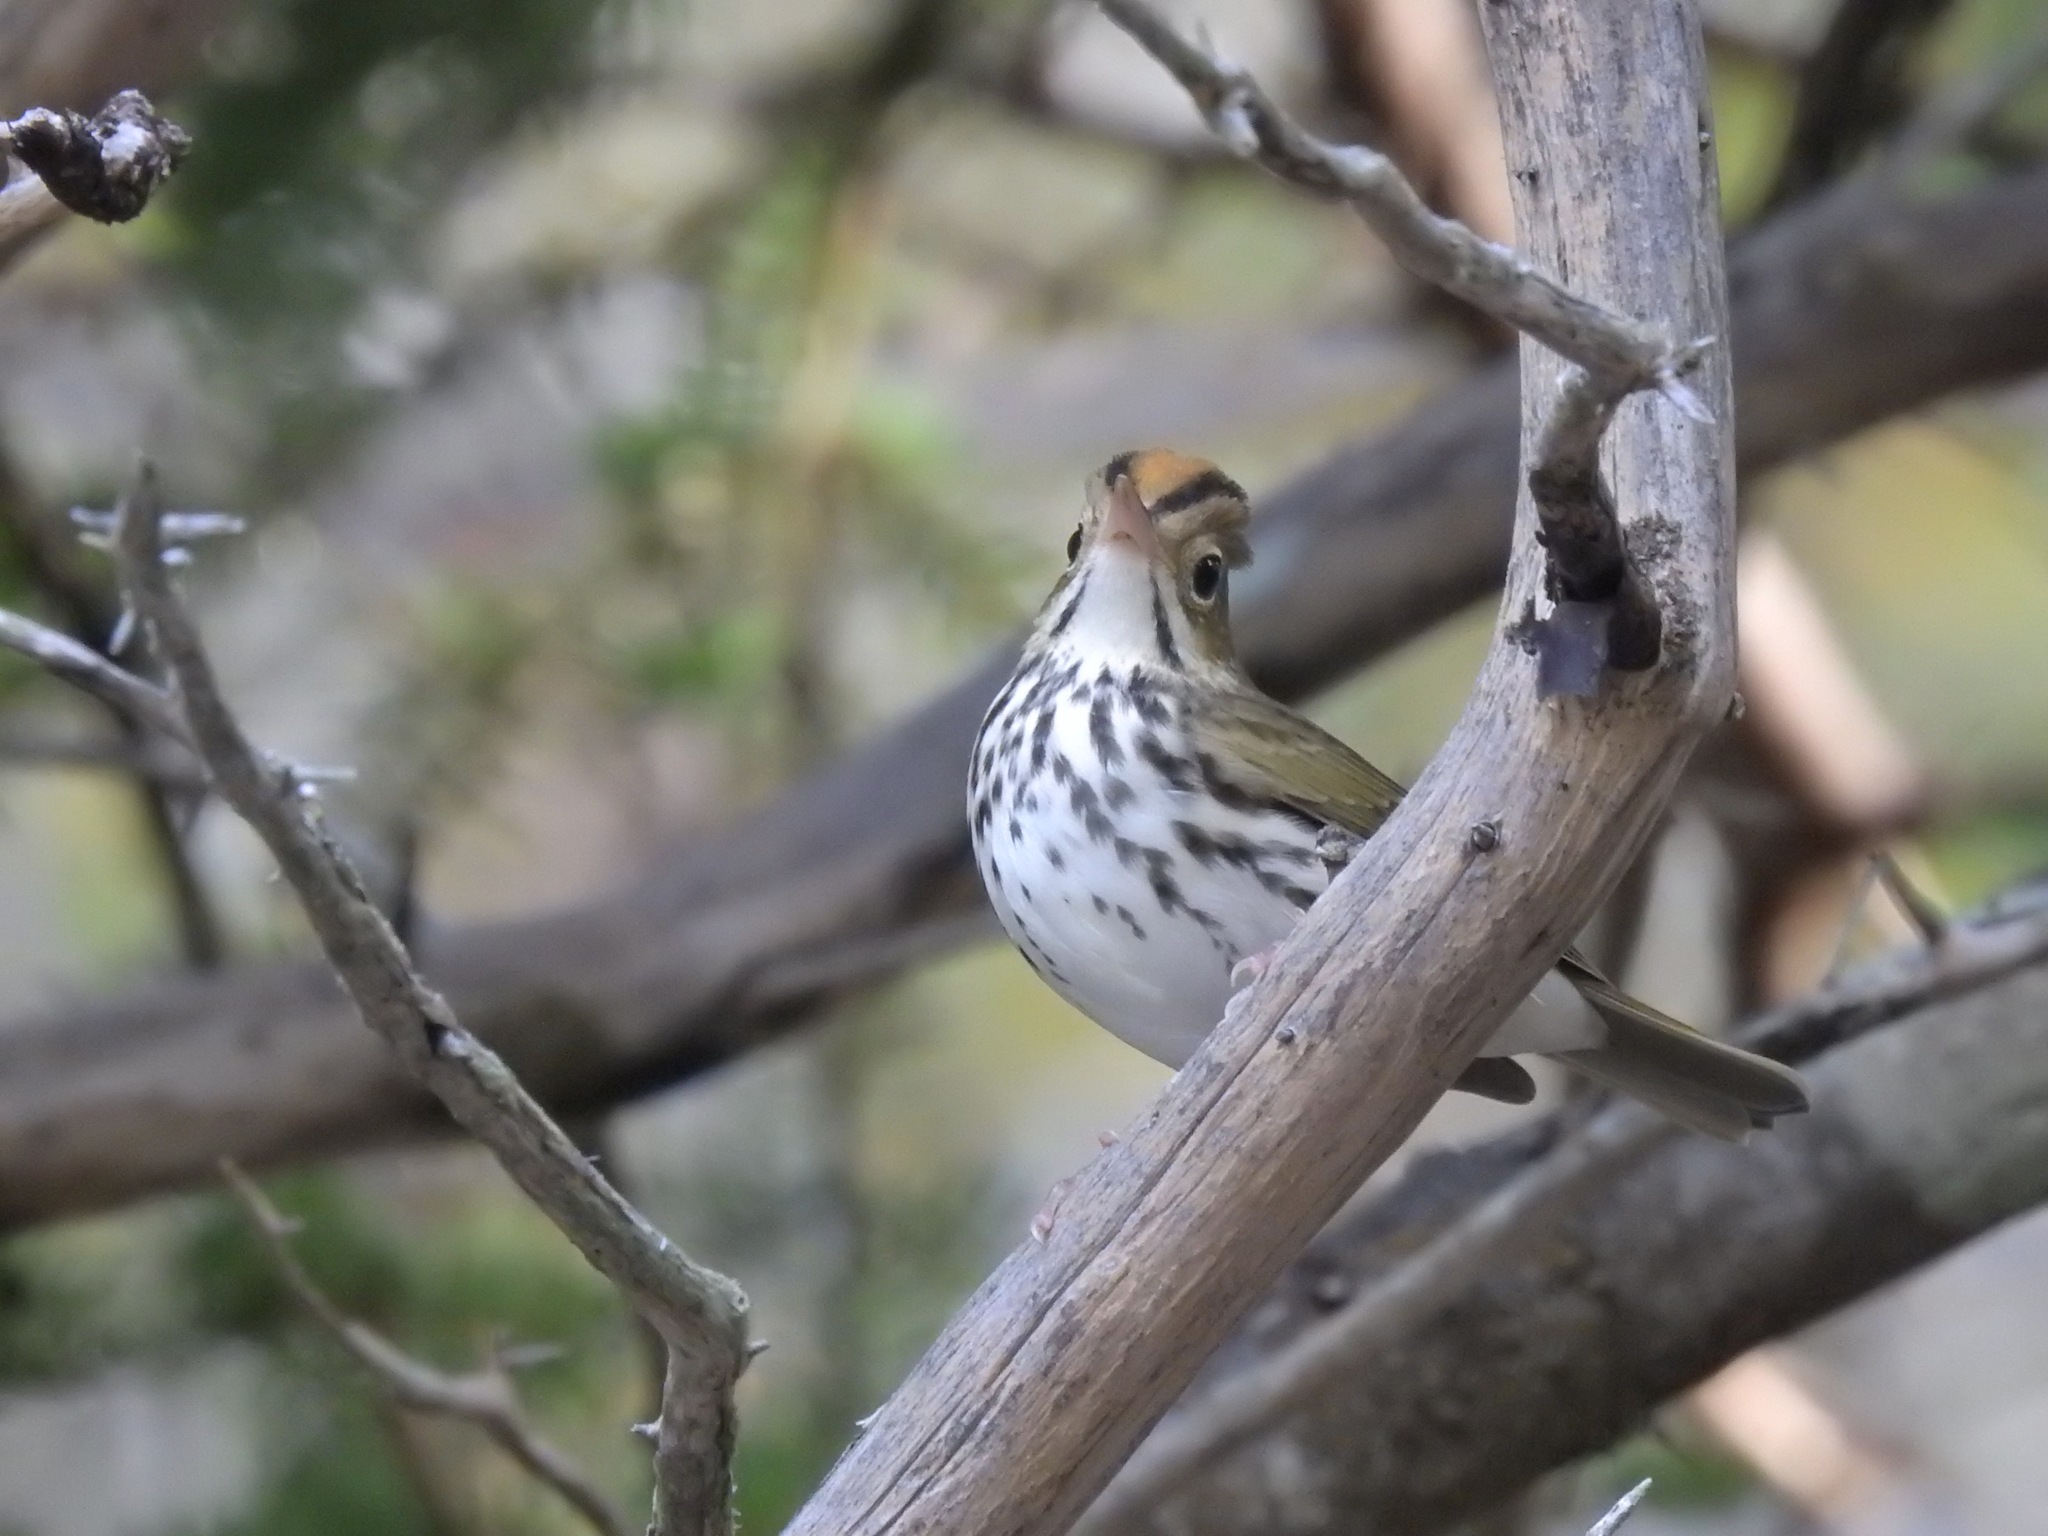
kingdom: Animalia
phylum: Chordata
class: Aves
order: Passeriformes
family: Parulidae
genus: Seiurus
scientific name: Seiurus aurocapilla
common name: Ovenbird
